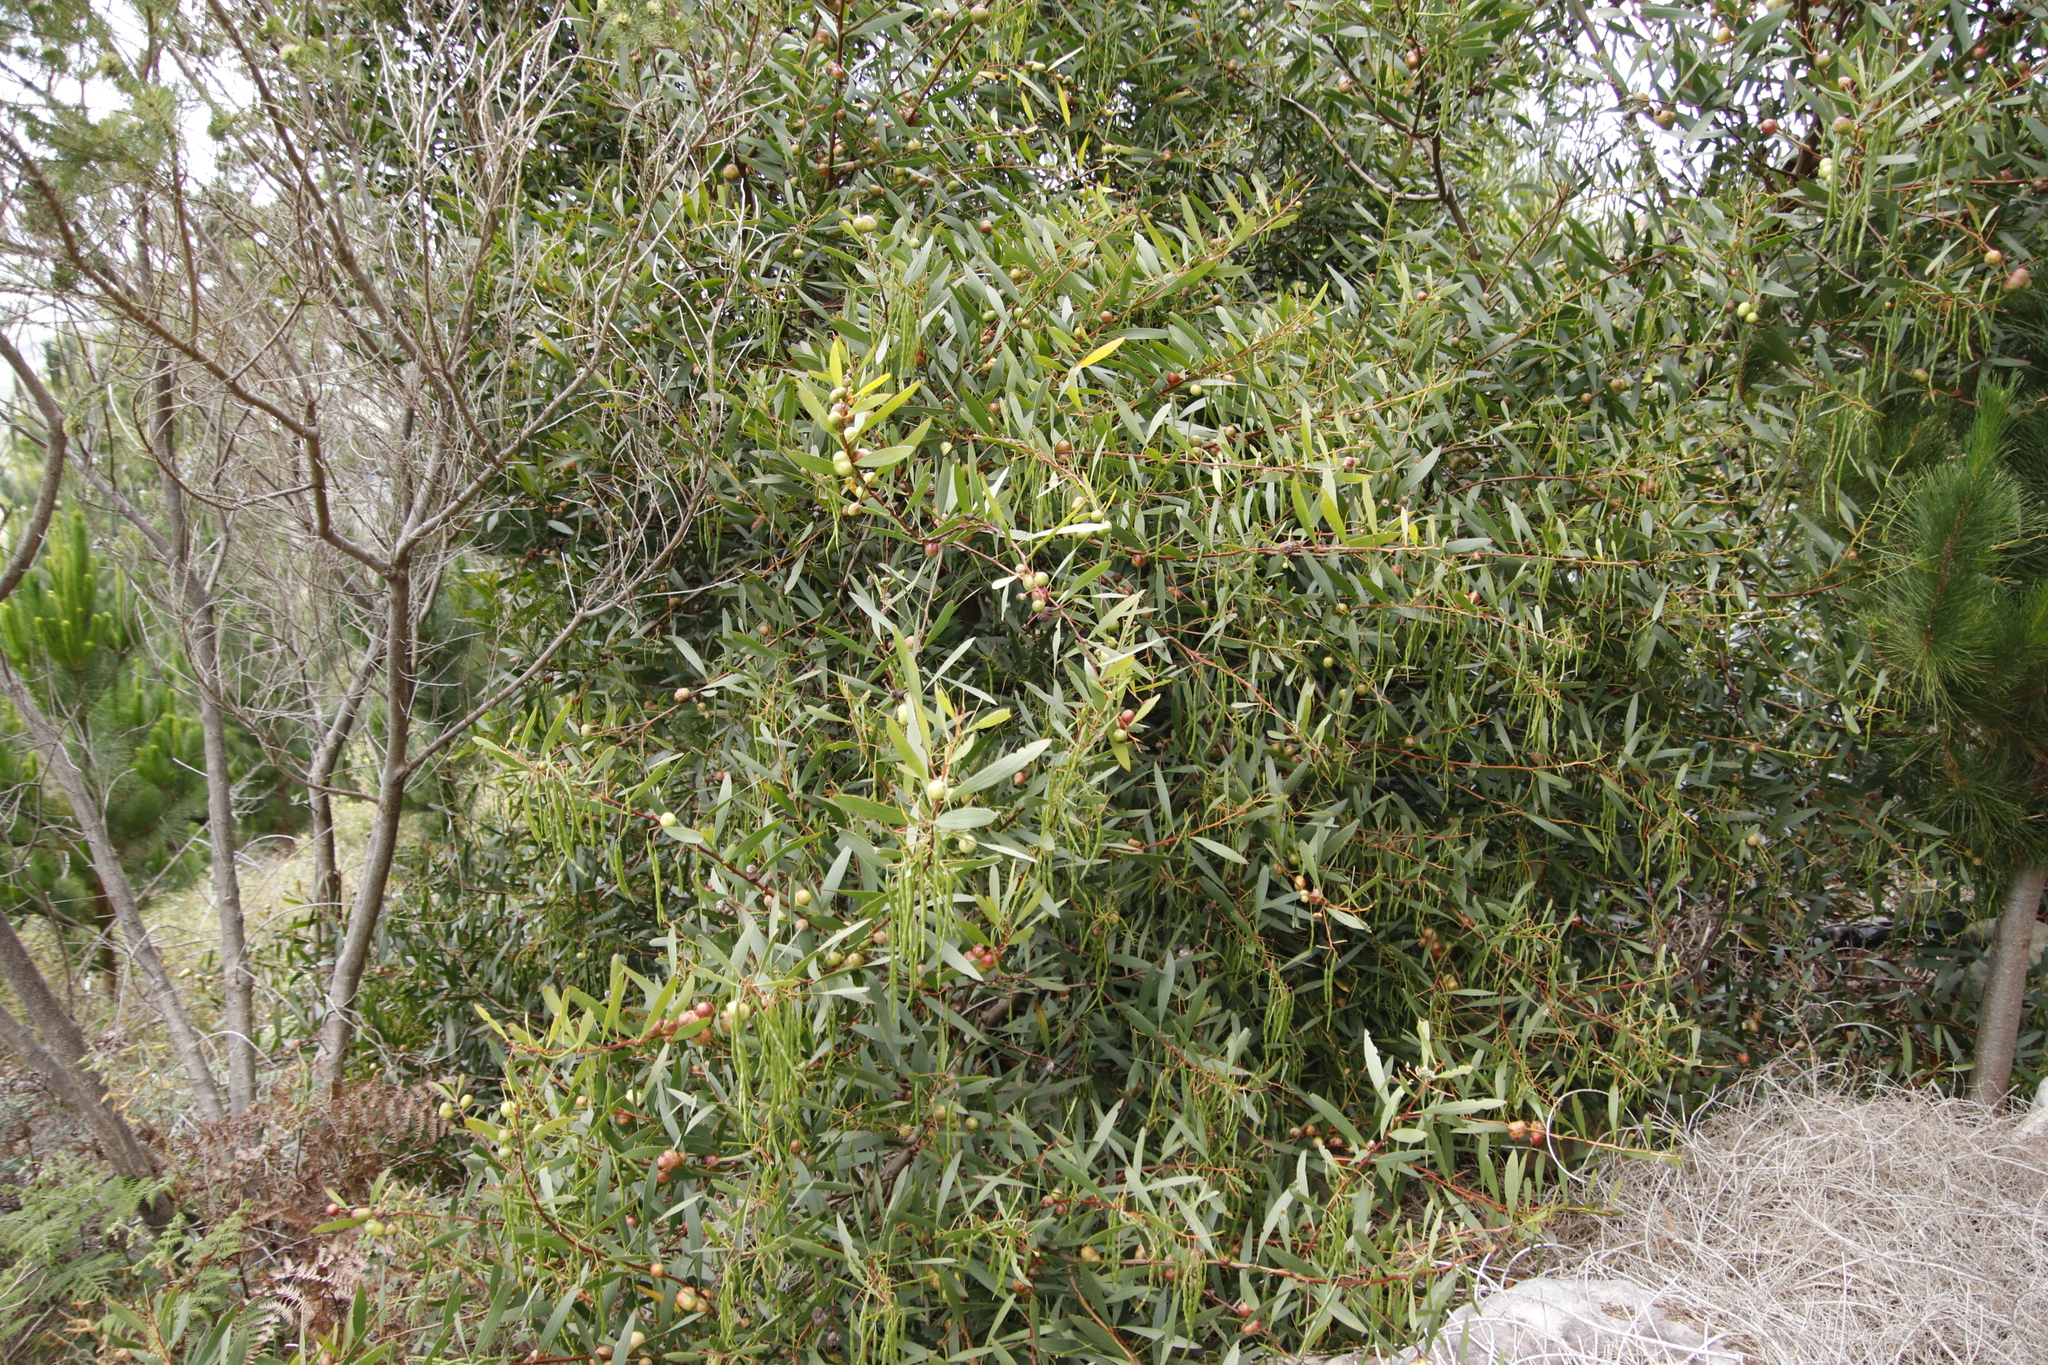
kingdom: Plantae
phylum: Tracheophyta
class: Magnoliopsida
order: Fabales
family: Fabaceae
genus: Acacia
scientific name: Acacia longifolia
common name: Sydney golden wattle
